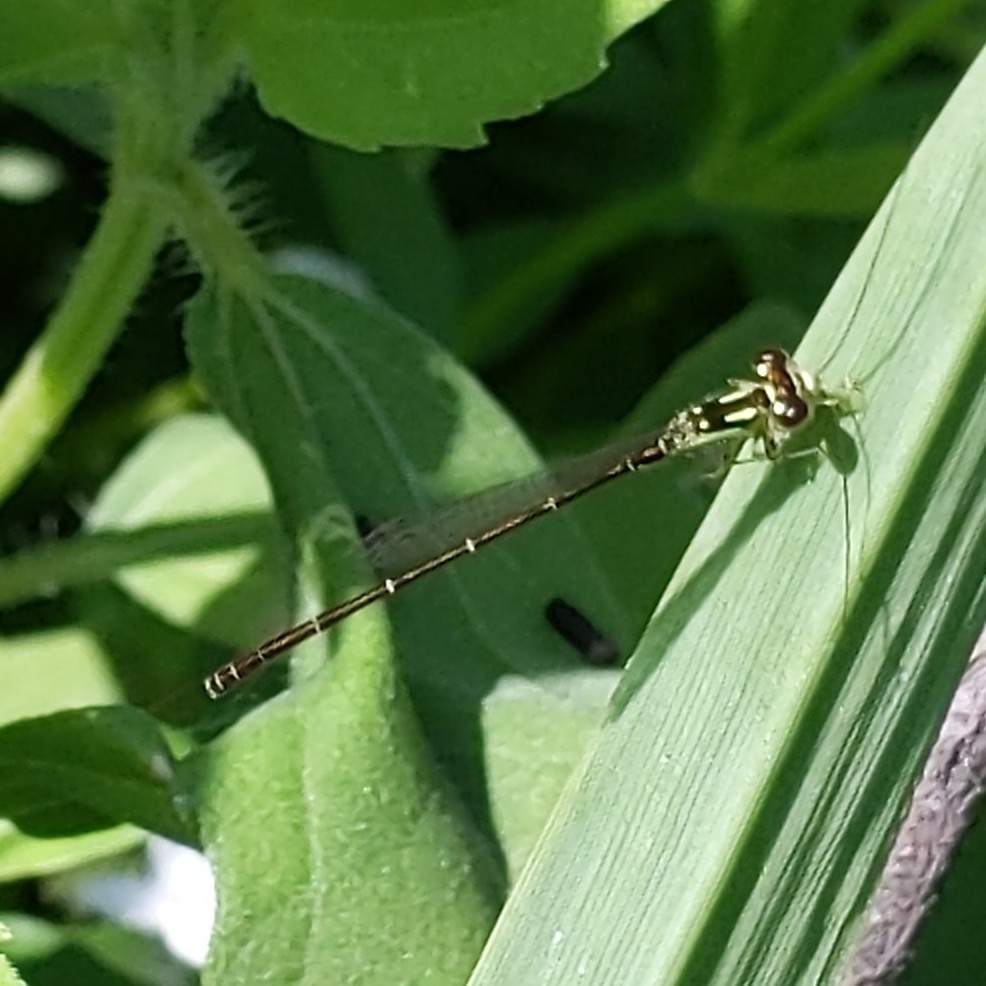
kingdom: Animalia
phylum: Arthropoda
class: Insecta
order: Odonata
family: Coenagrionidae
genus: Ischnura
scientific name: Ischnura posita
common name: Fragile forktail
